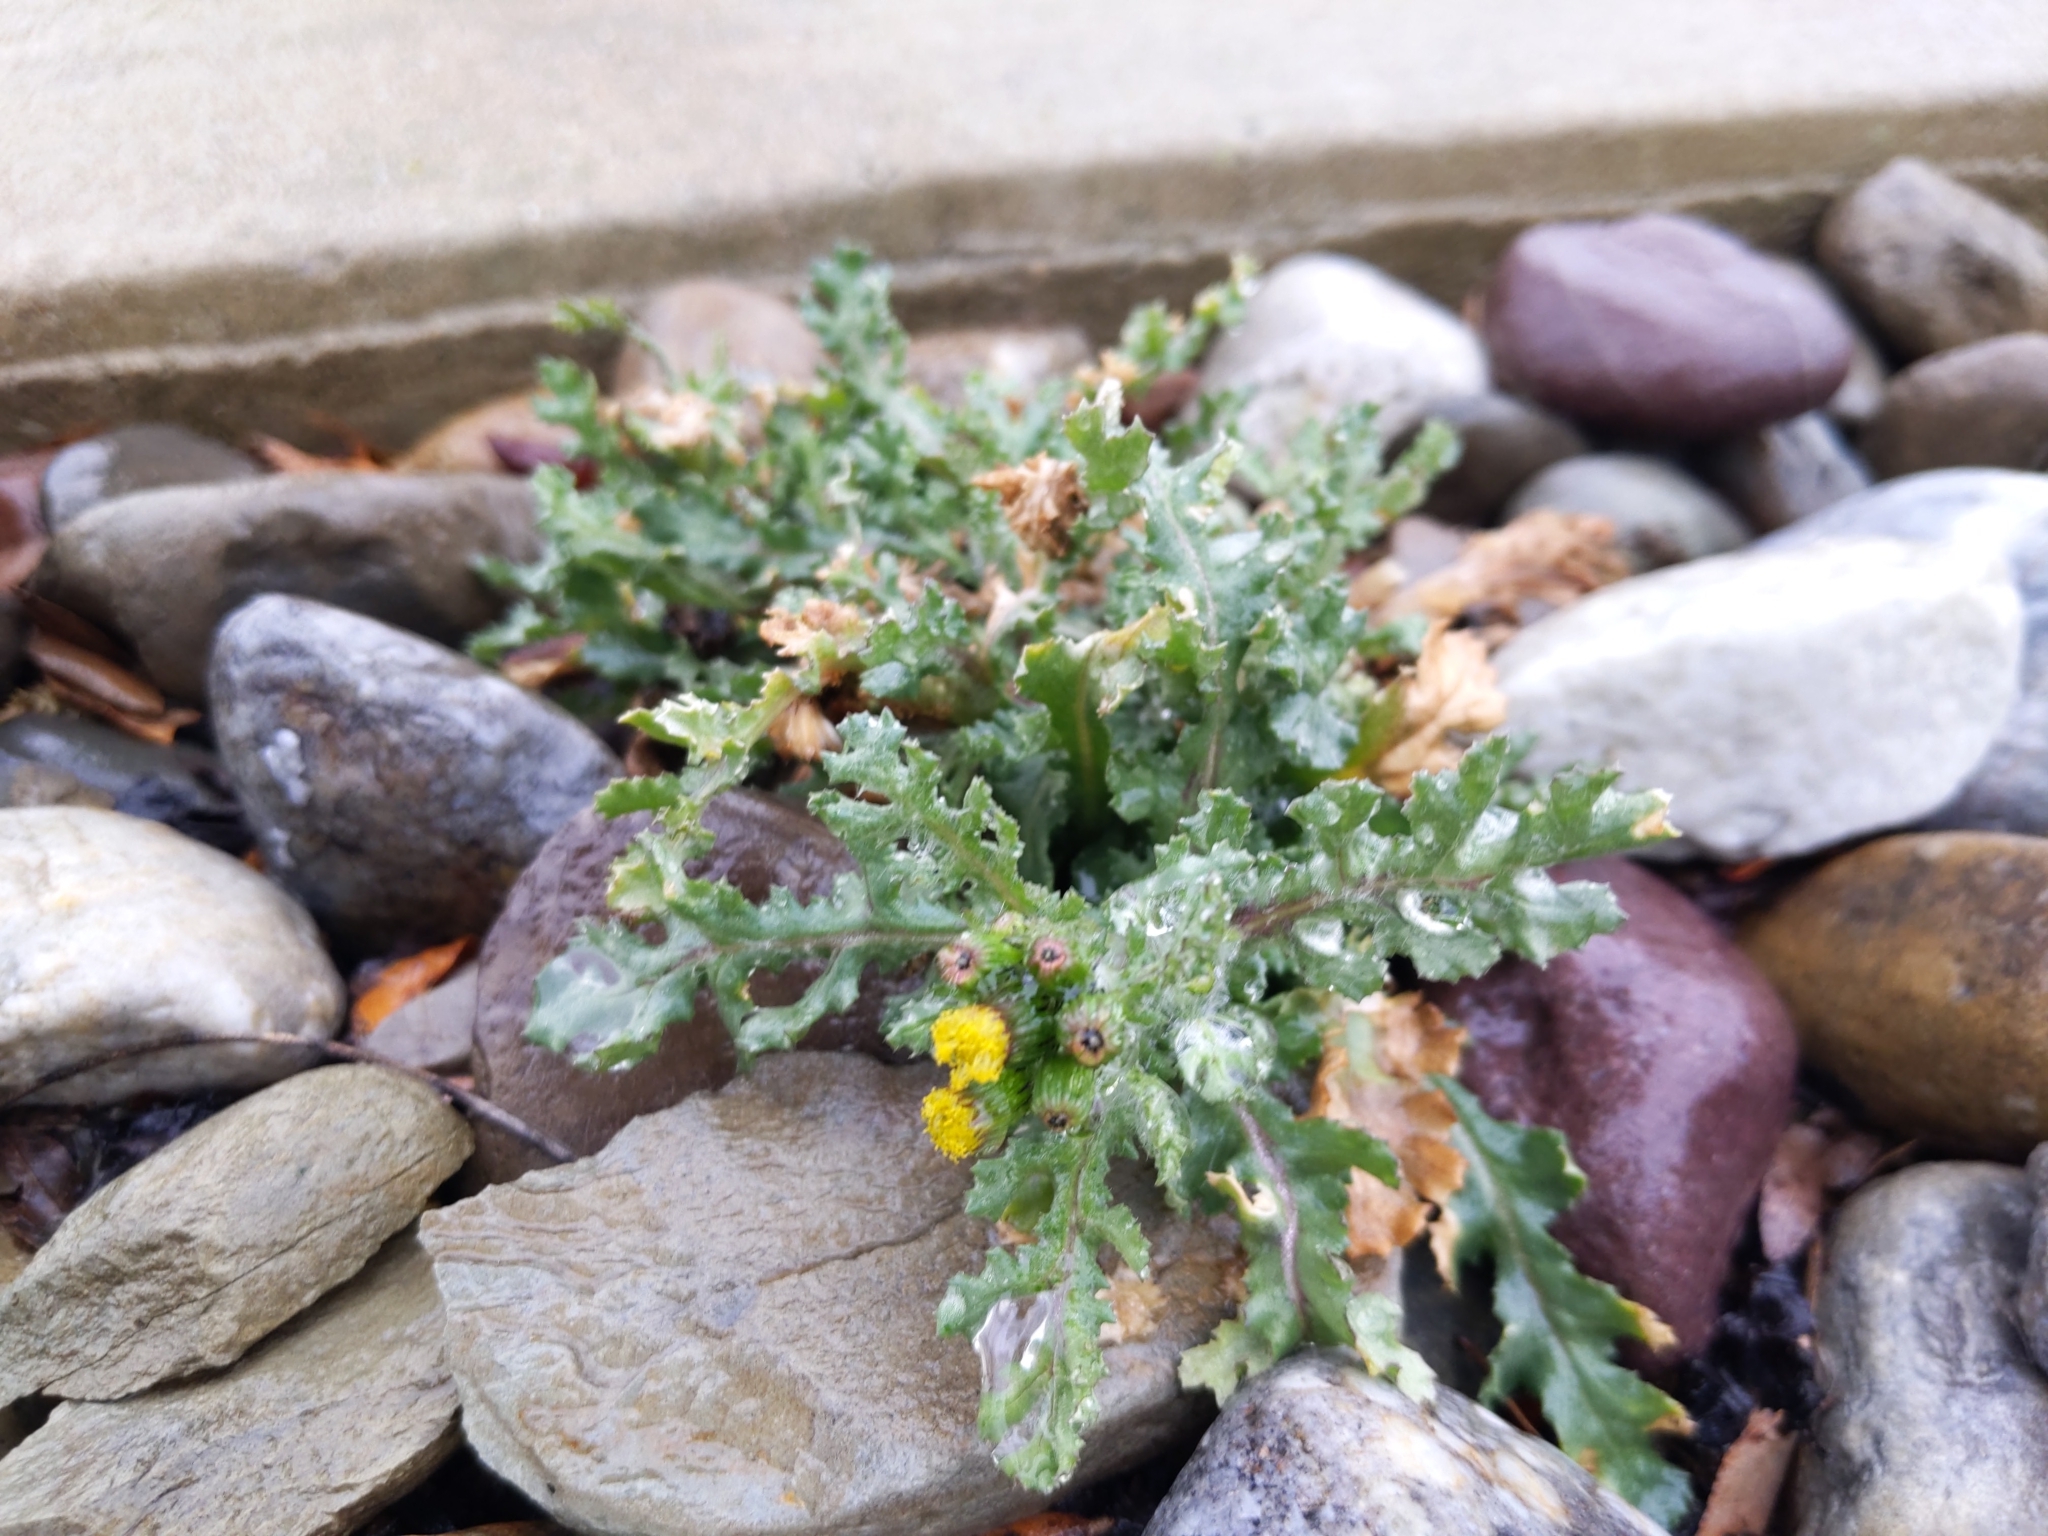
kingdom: Plantae
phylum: Tracheophyta
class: Magnoliopsida
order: Asterales
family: Asteraceae
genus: Senecio
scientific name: Senecio vulgaris
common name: Old-man-in-the-spring
